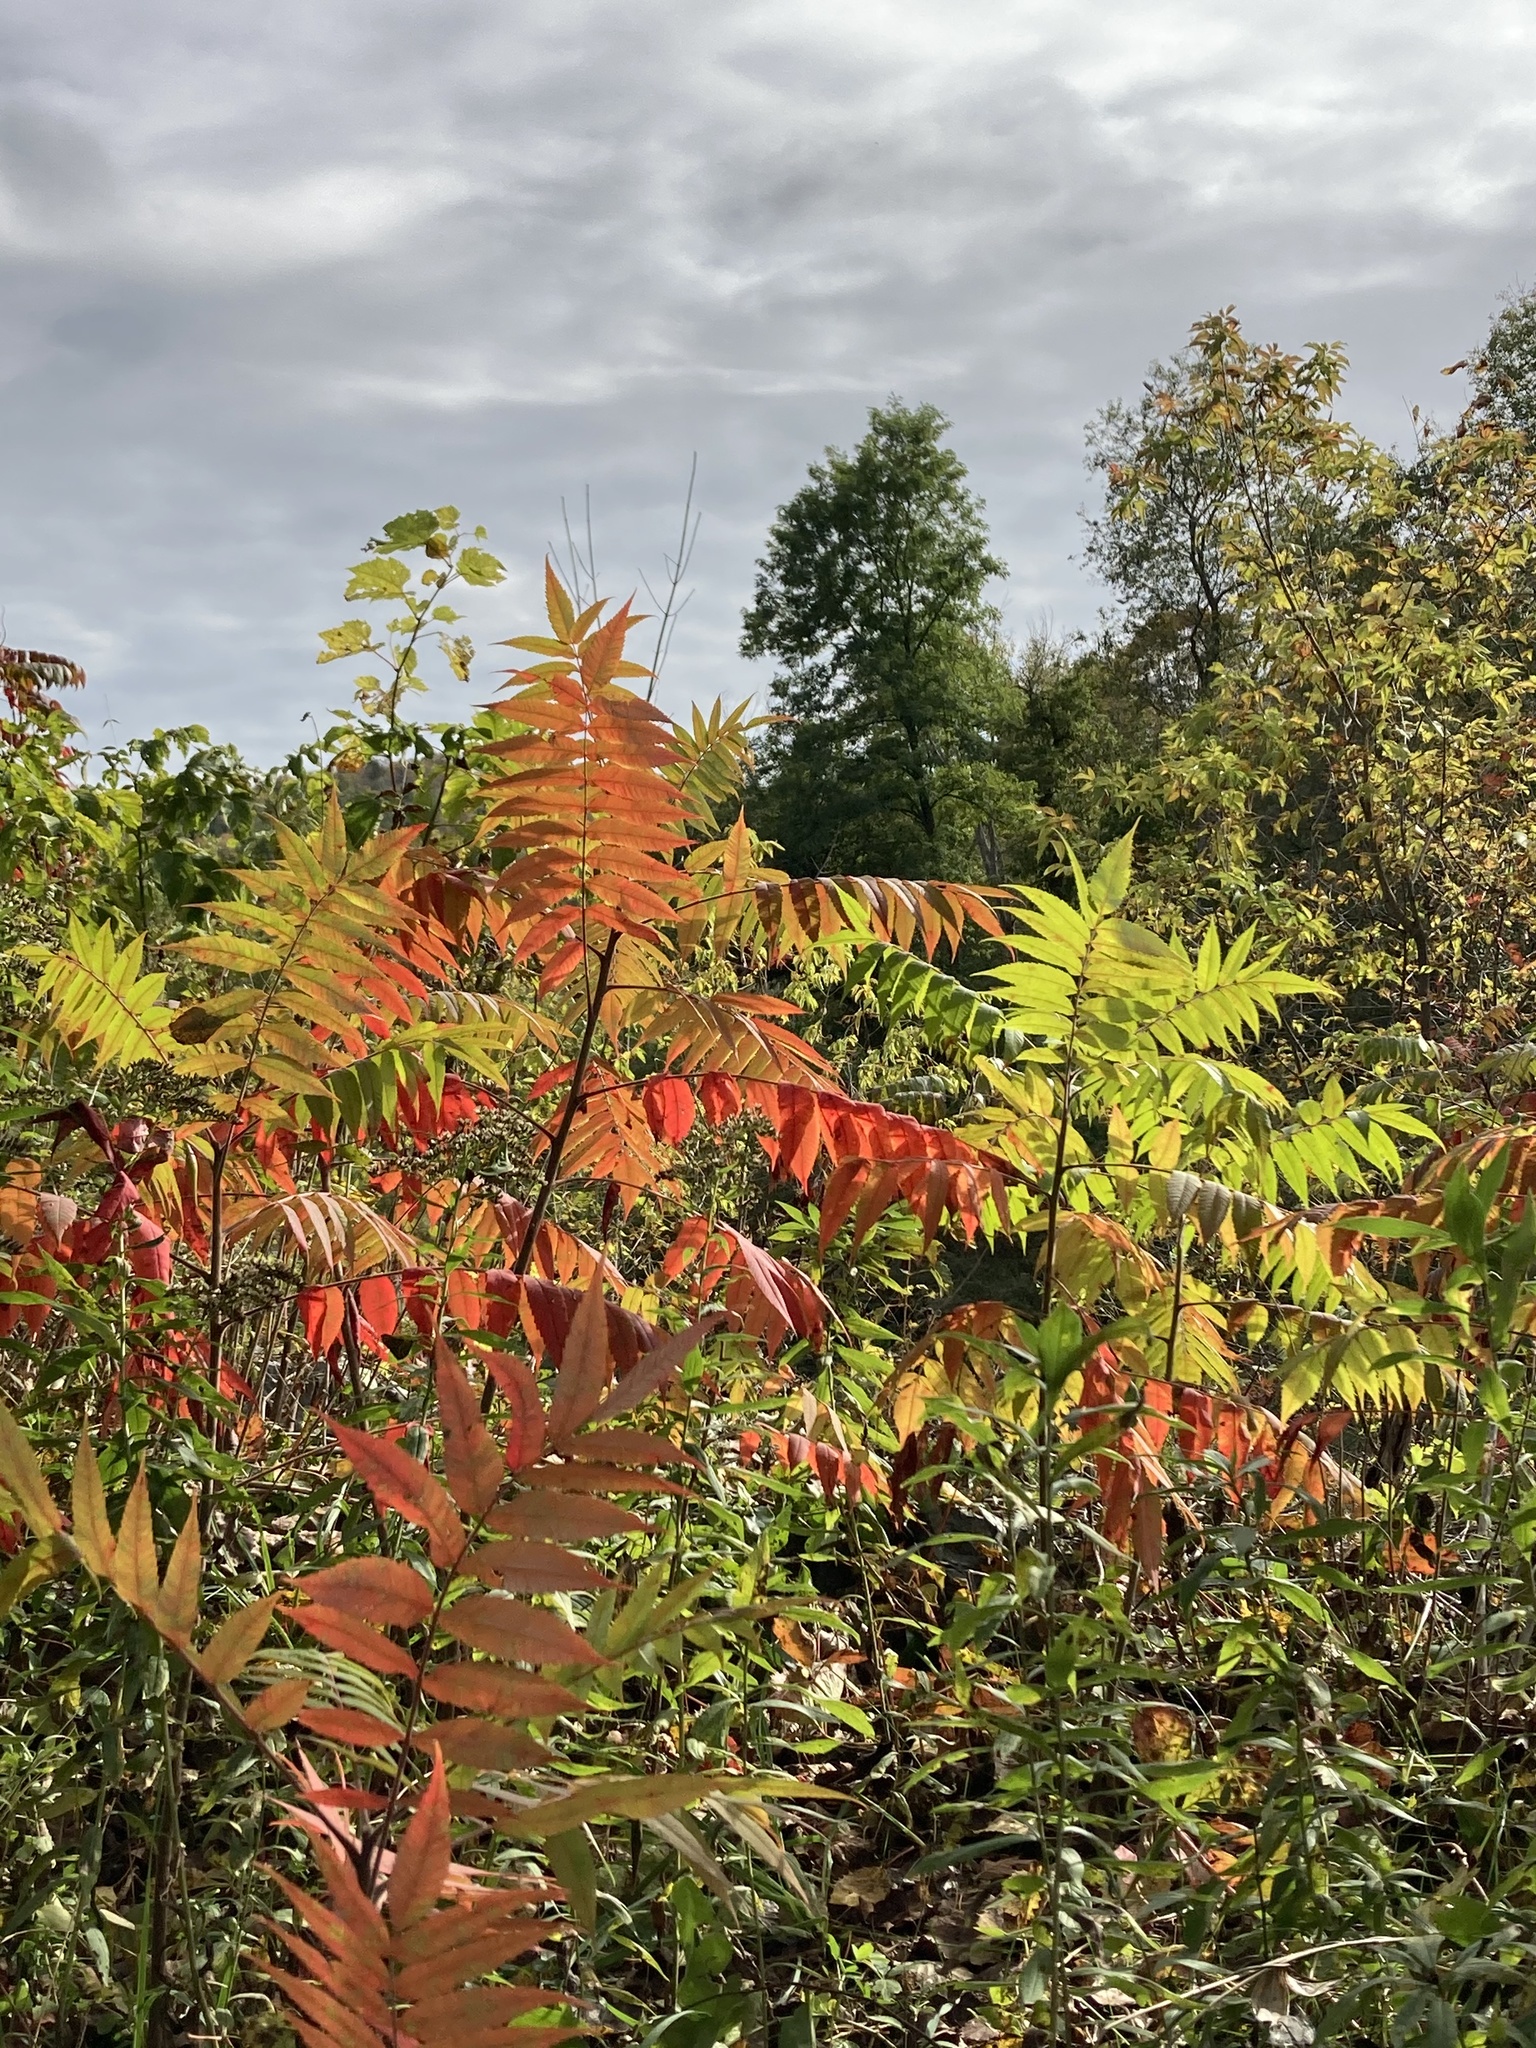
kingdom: Plantae
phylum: Tracheophyta
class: Magnoliopsida
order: Sapindales
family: Anacardiaceae
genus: Rhus
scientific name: Rhus typhina
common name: Staghorn sumac
